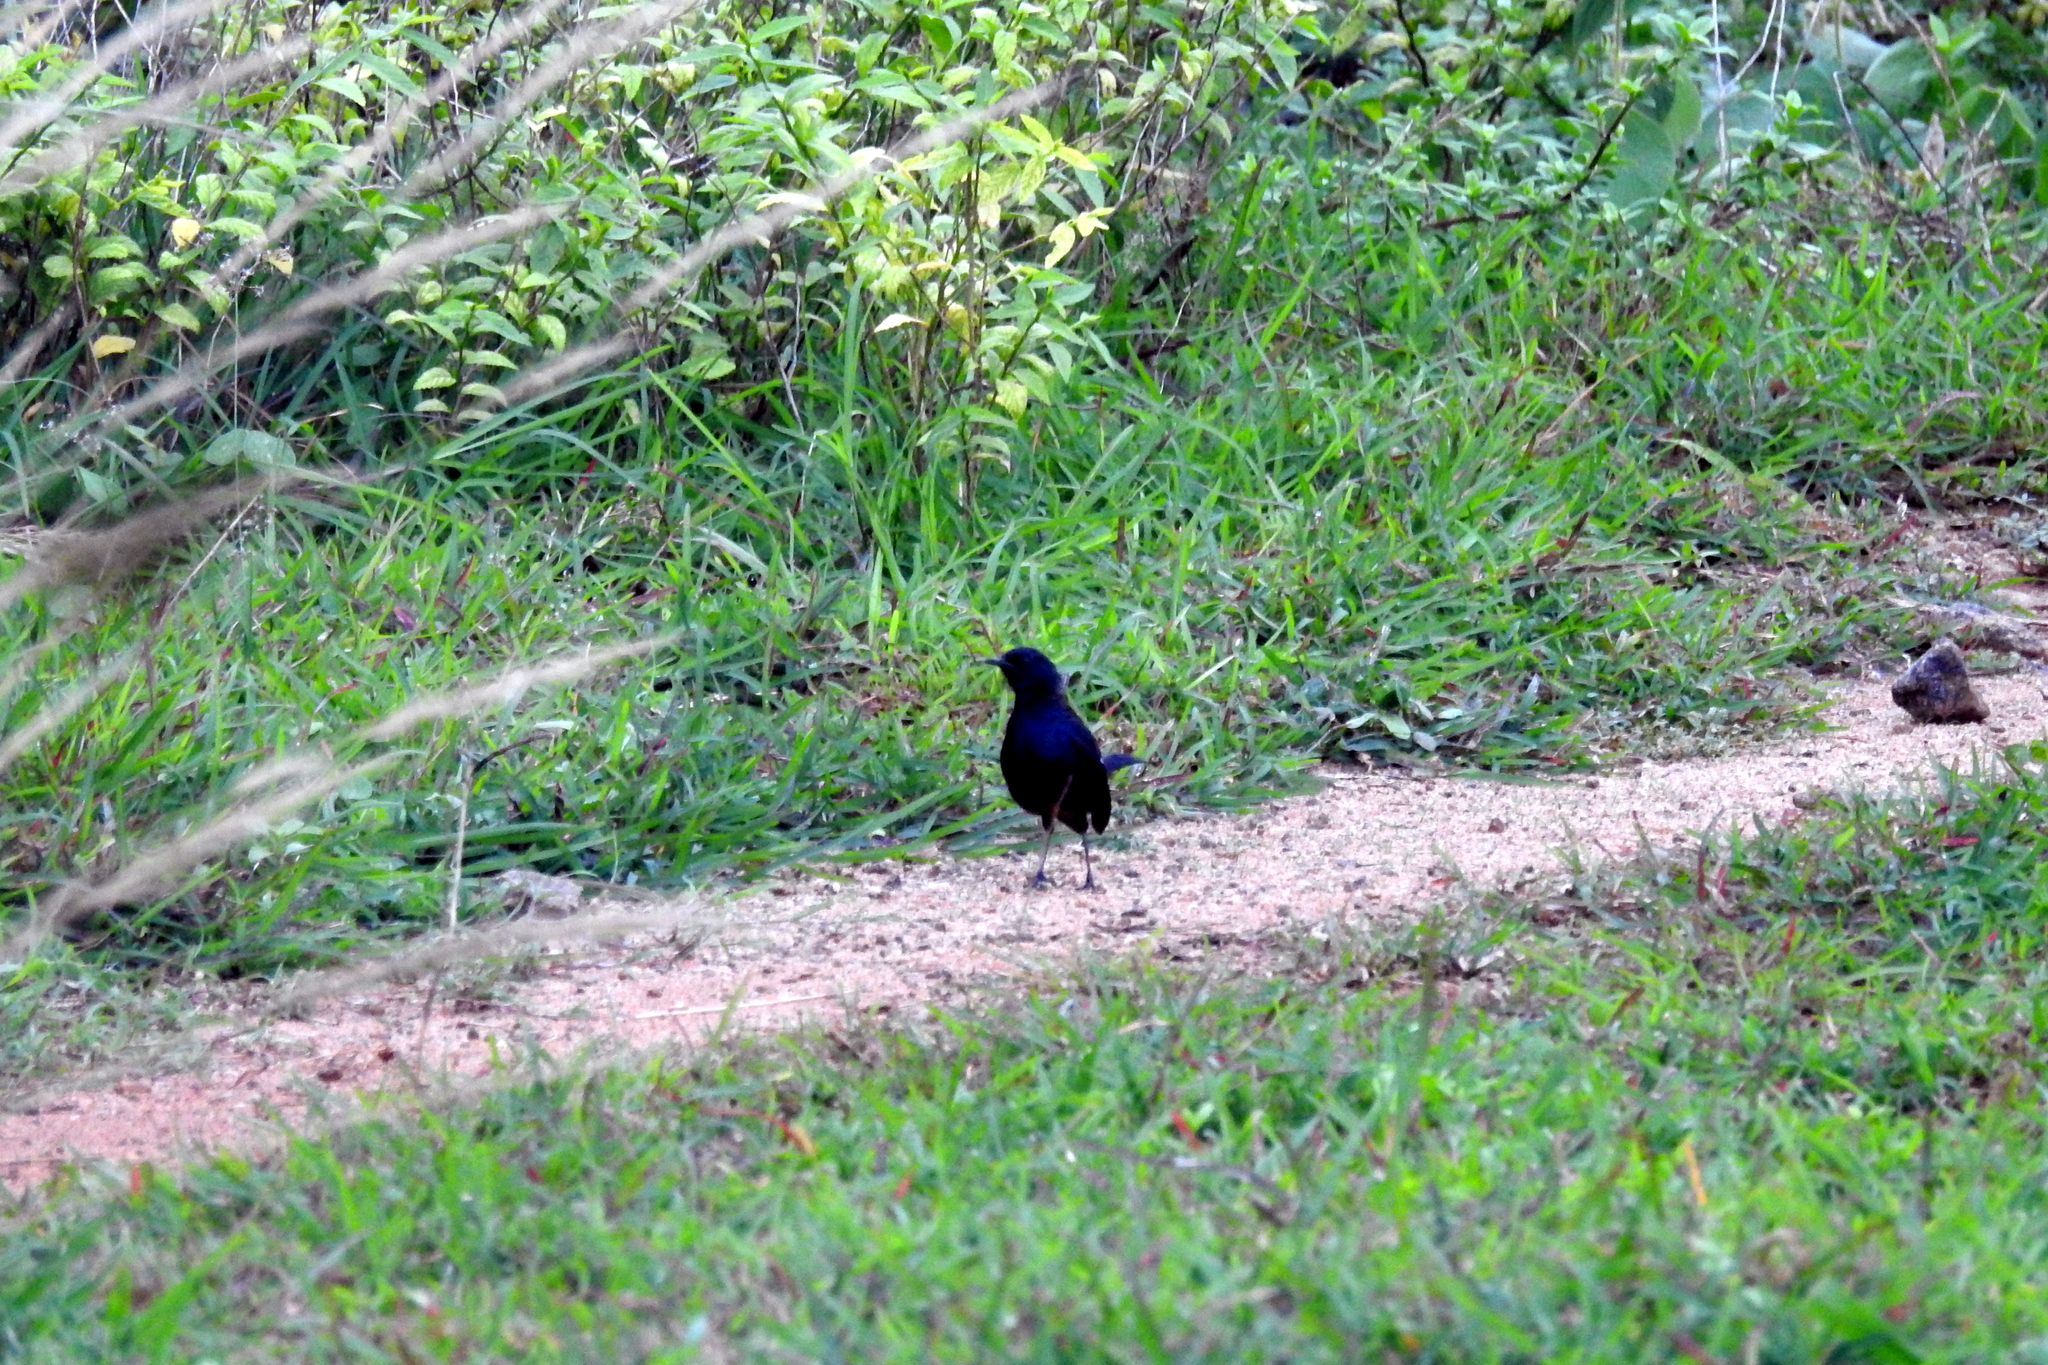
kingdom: Animalia
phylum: Chordata
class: Aves
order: Passeriformes
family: Muscicapidae
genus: Saxicoloides
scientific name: Saxicoloides fulicatus
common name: Indian robin
